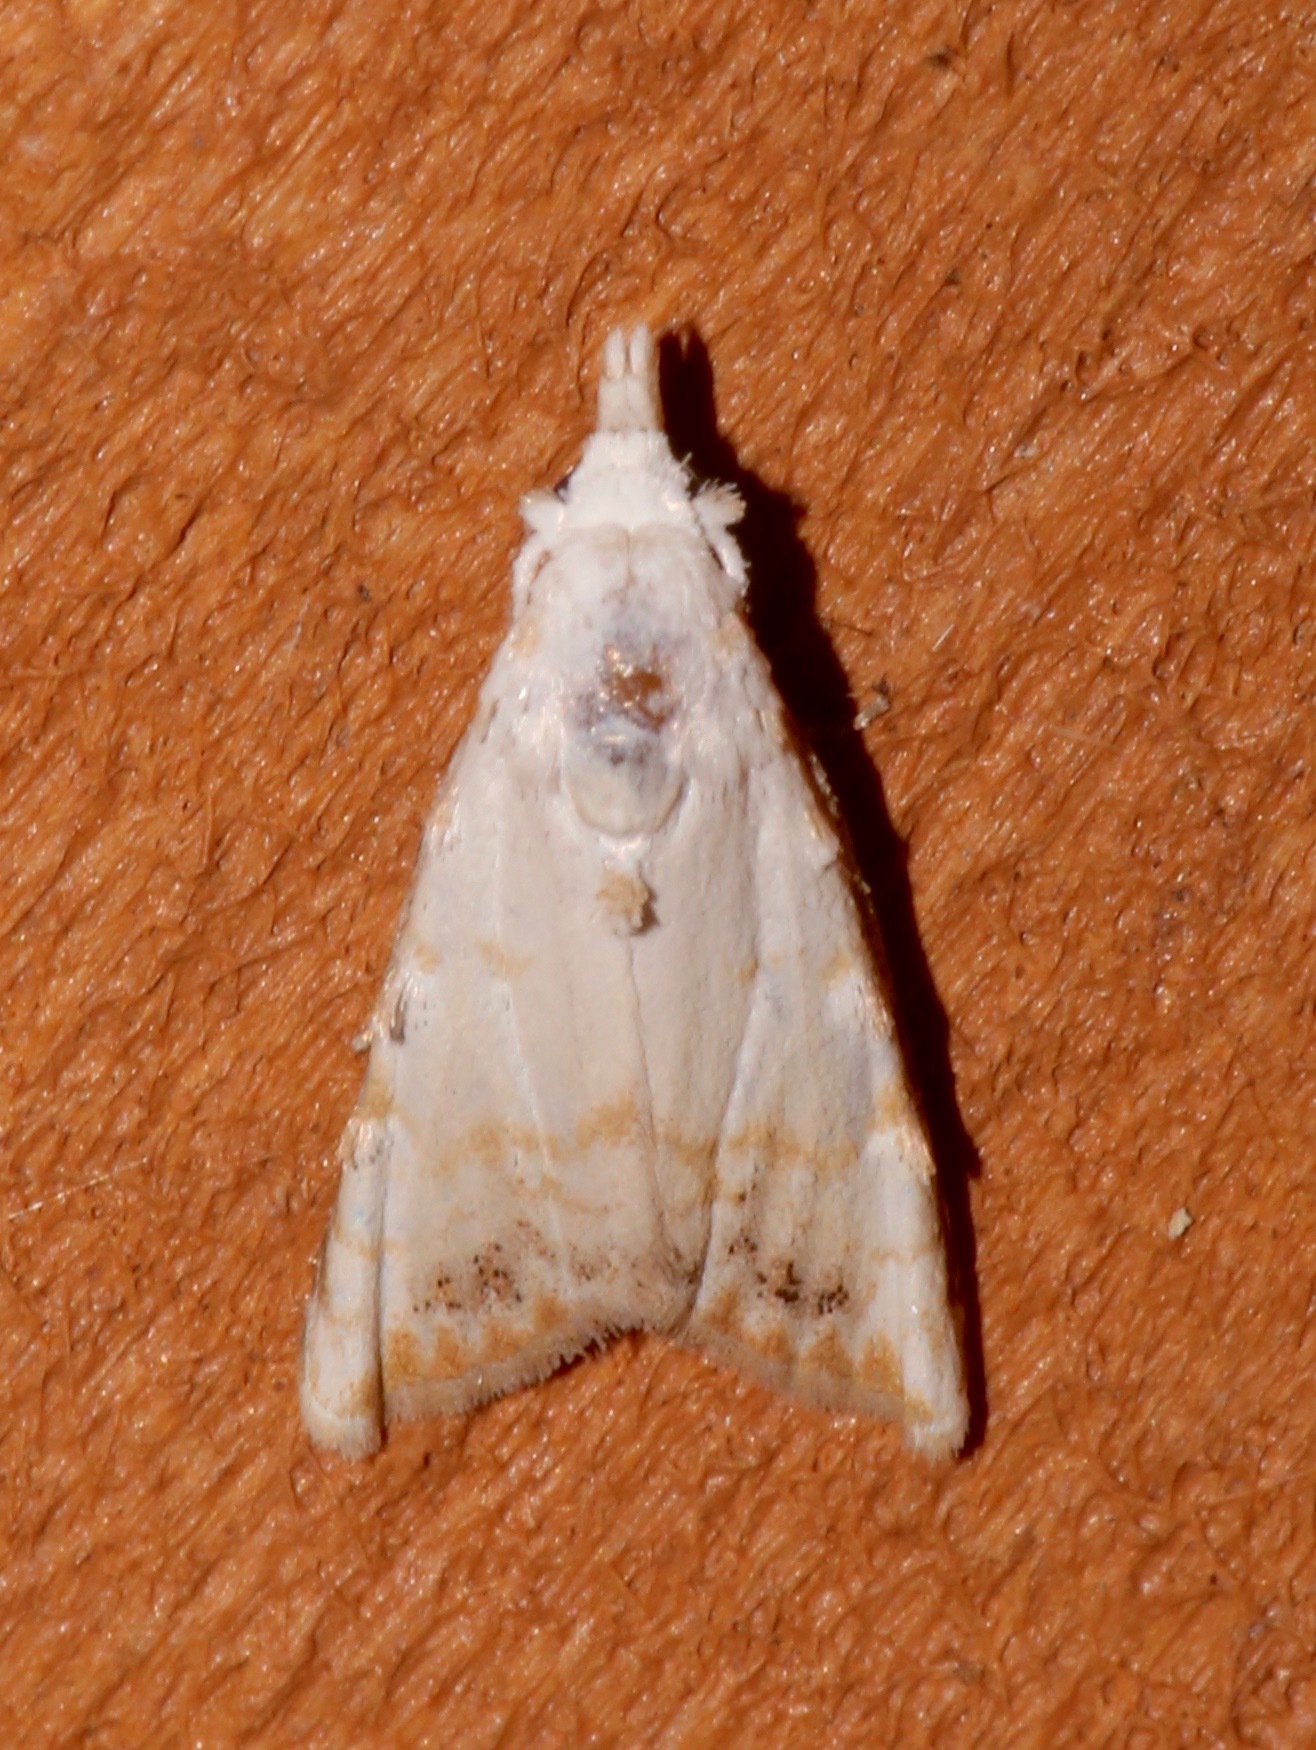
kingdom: Animalia
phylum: Arthropoda
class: Insecta
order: Lepidoptera
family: Nolidae
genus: Nola
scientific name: Nola cereella
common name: Sorghum webworm moth
